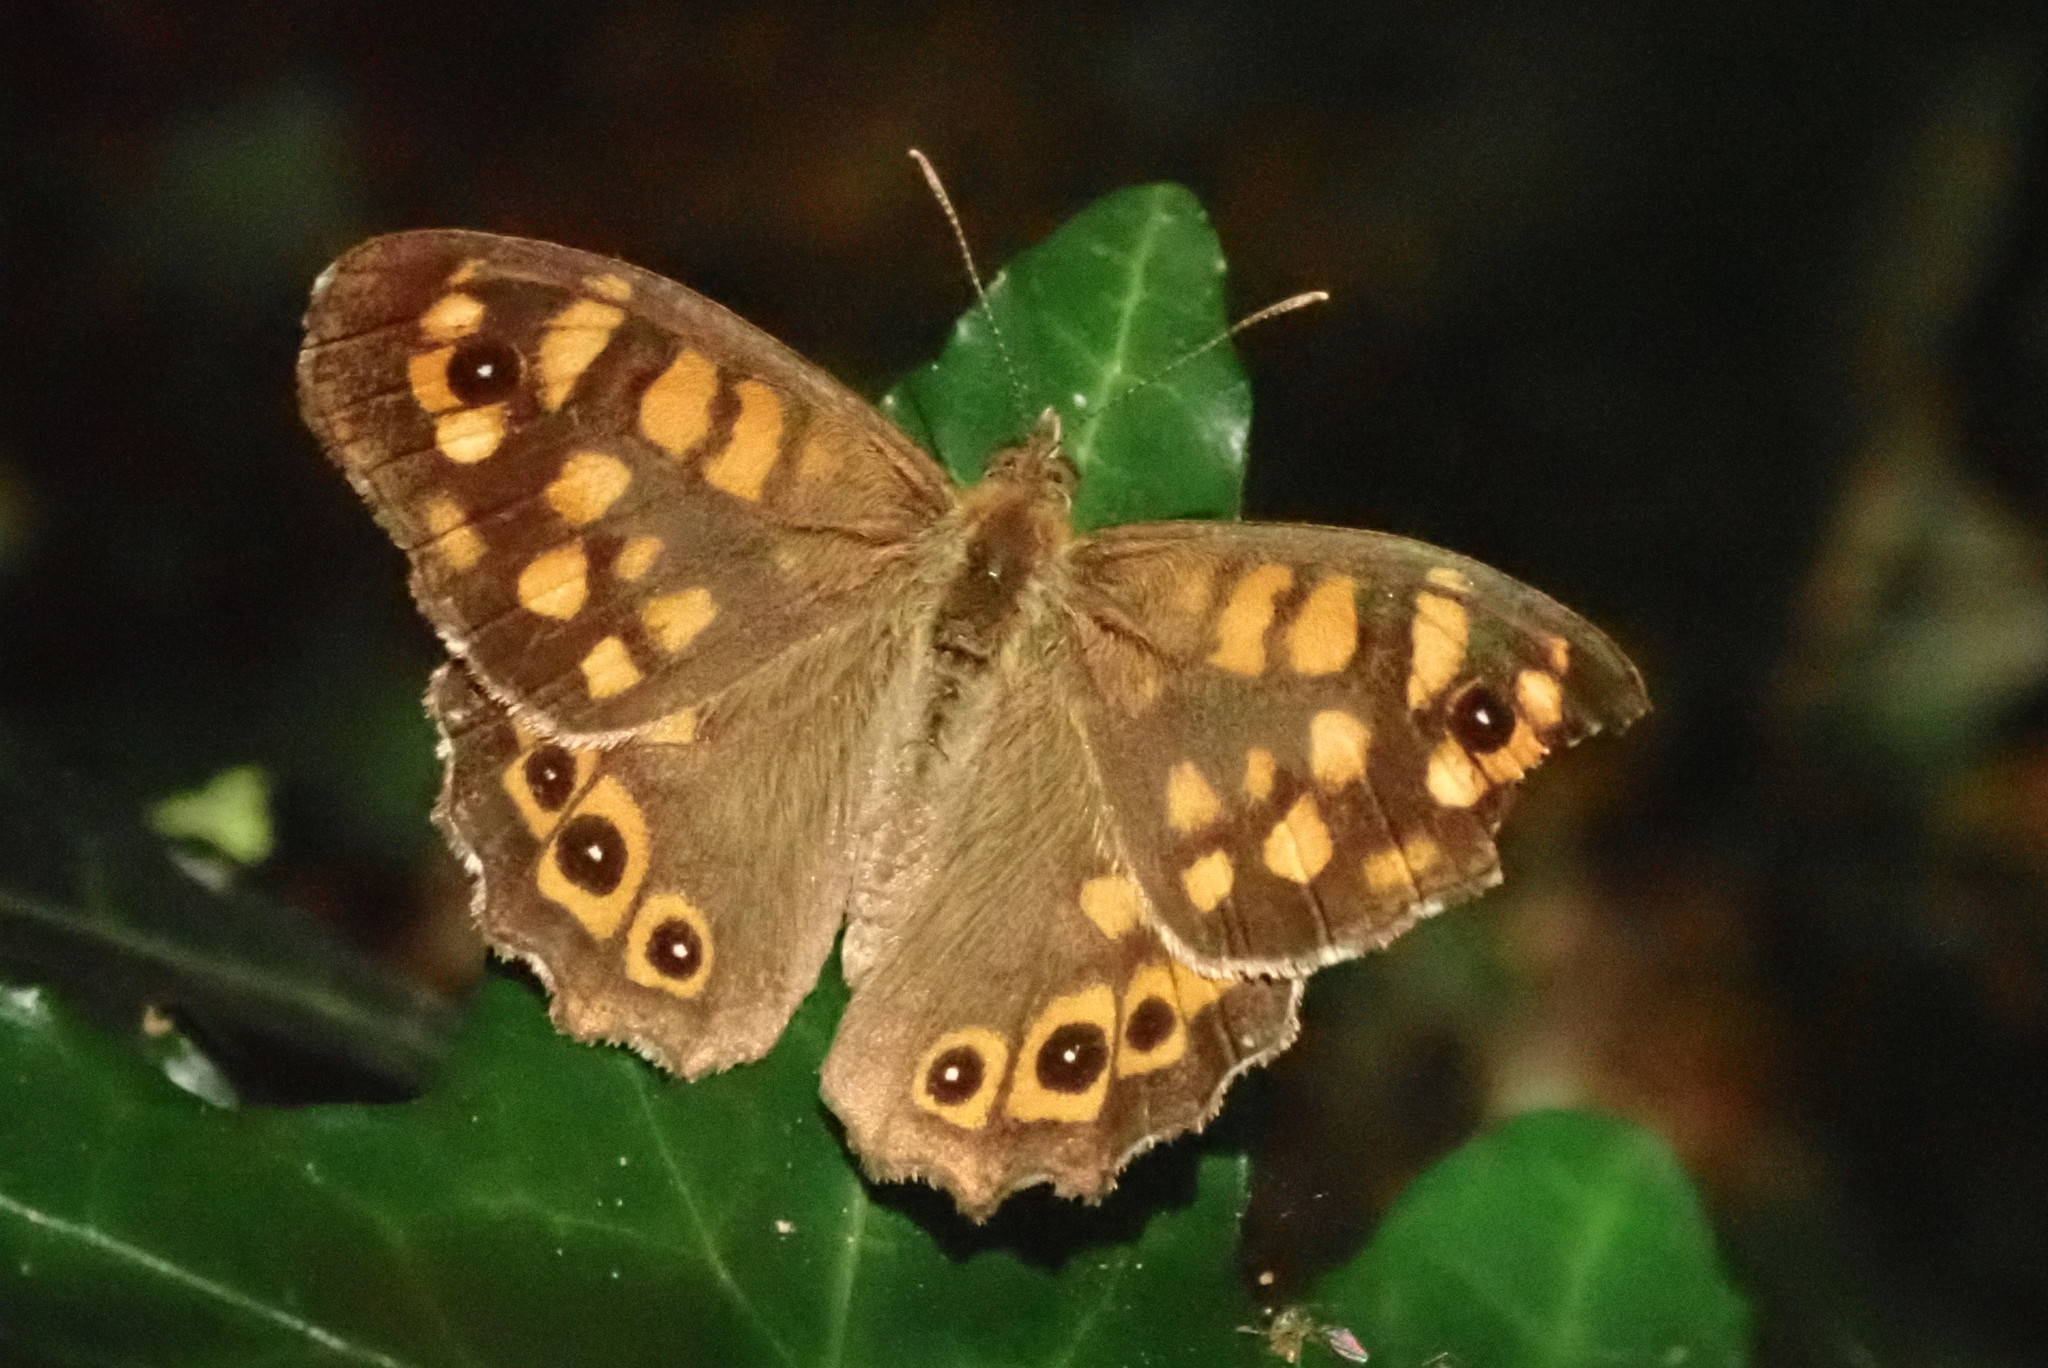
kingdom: Animalia
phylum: Arthropoda
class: Insecta
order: Lepidoptera
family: Nymphalidae
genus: Pararge
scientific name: Pararge aegeria
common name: Speckled wood
